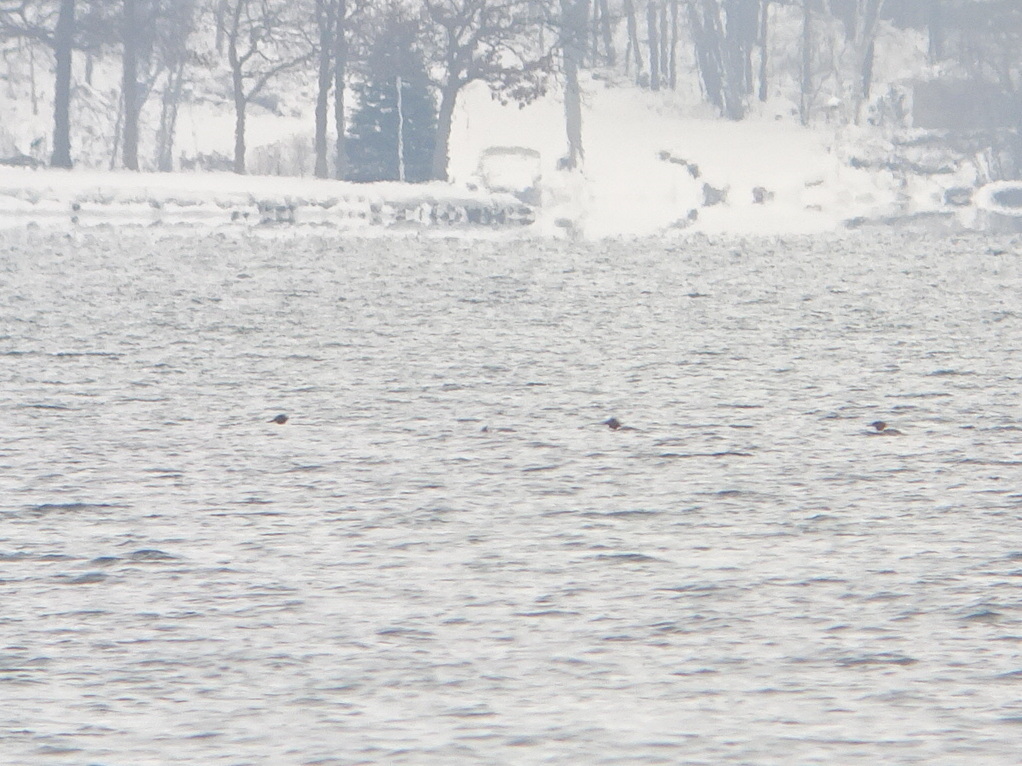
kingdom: Animalia
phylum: Chordata
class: Aves
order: Anseriformes
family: Anatidae
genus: Mergus
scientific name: Mergus merganser
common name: Common merganser
